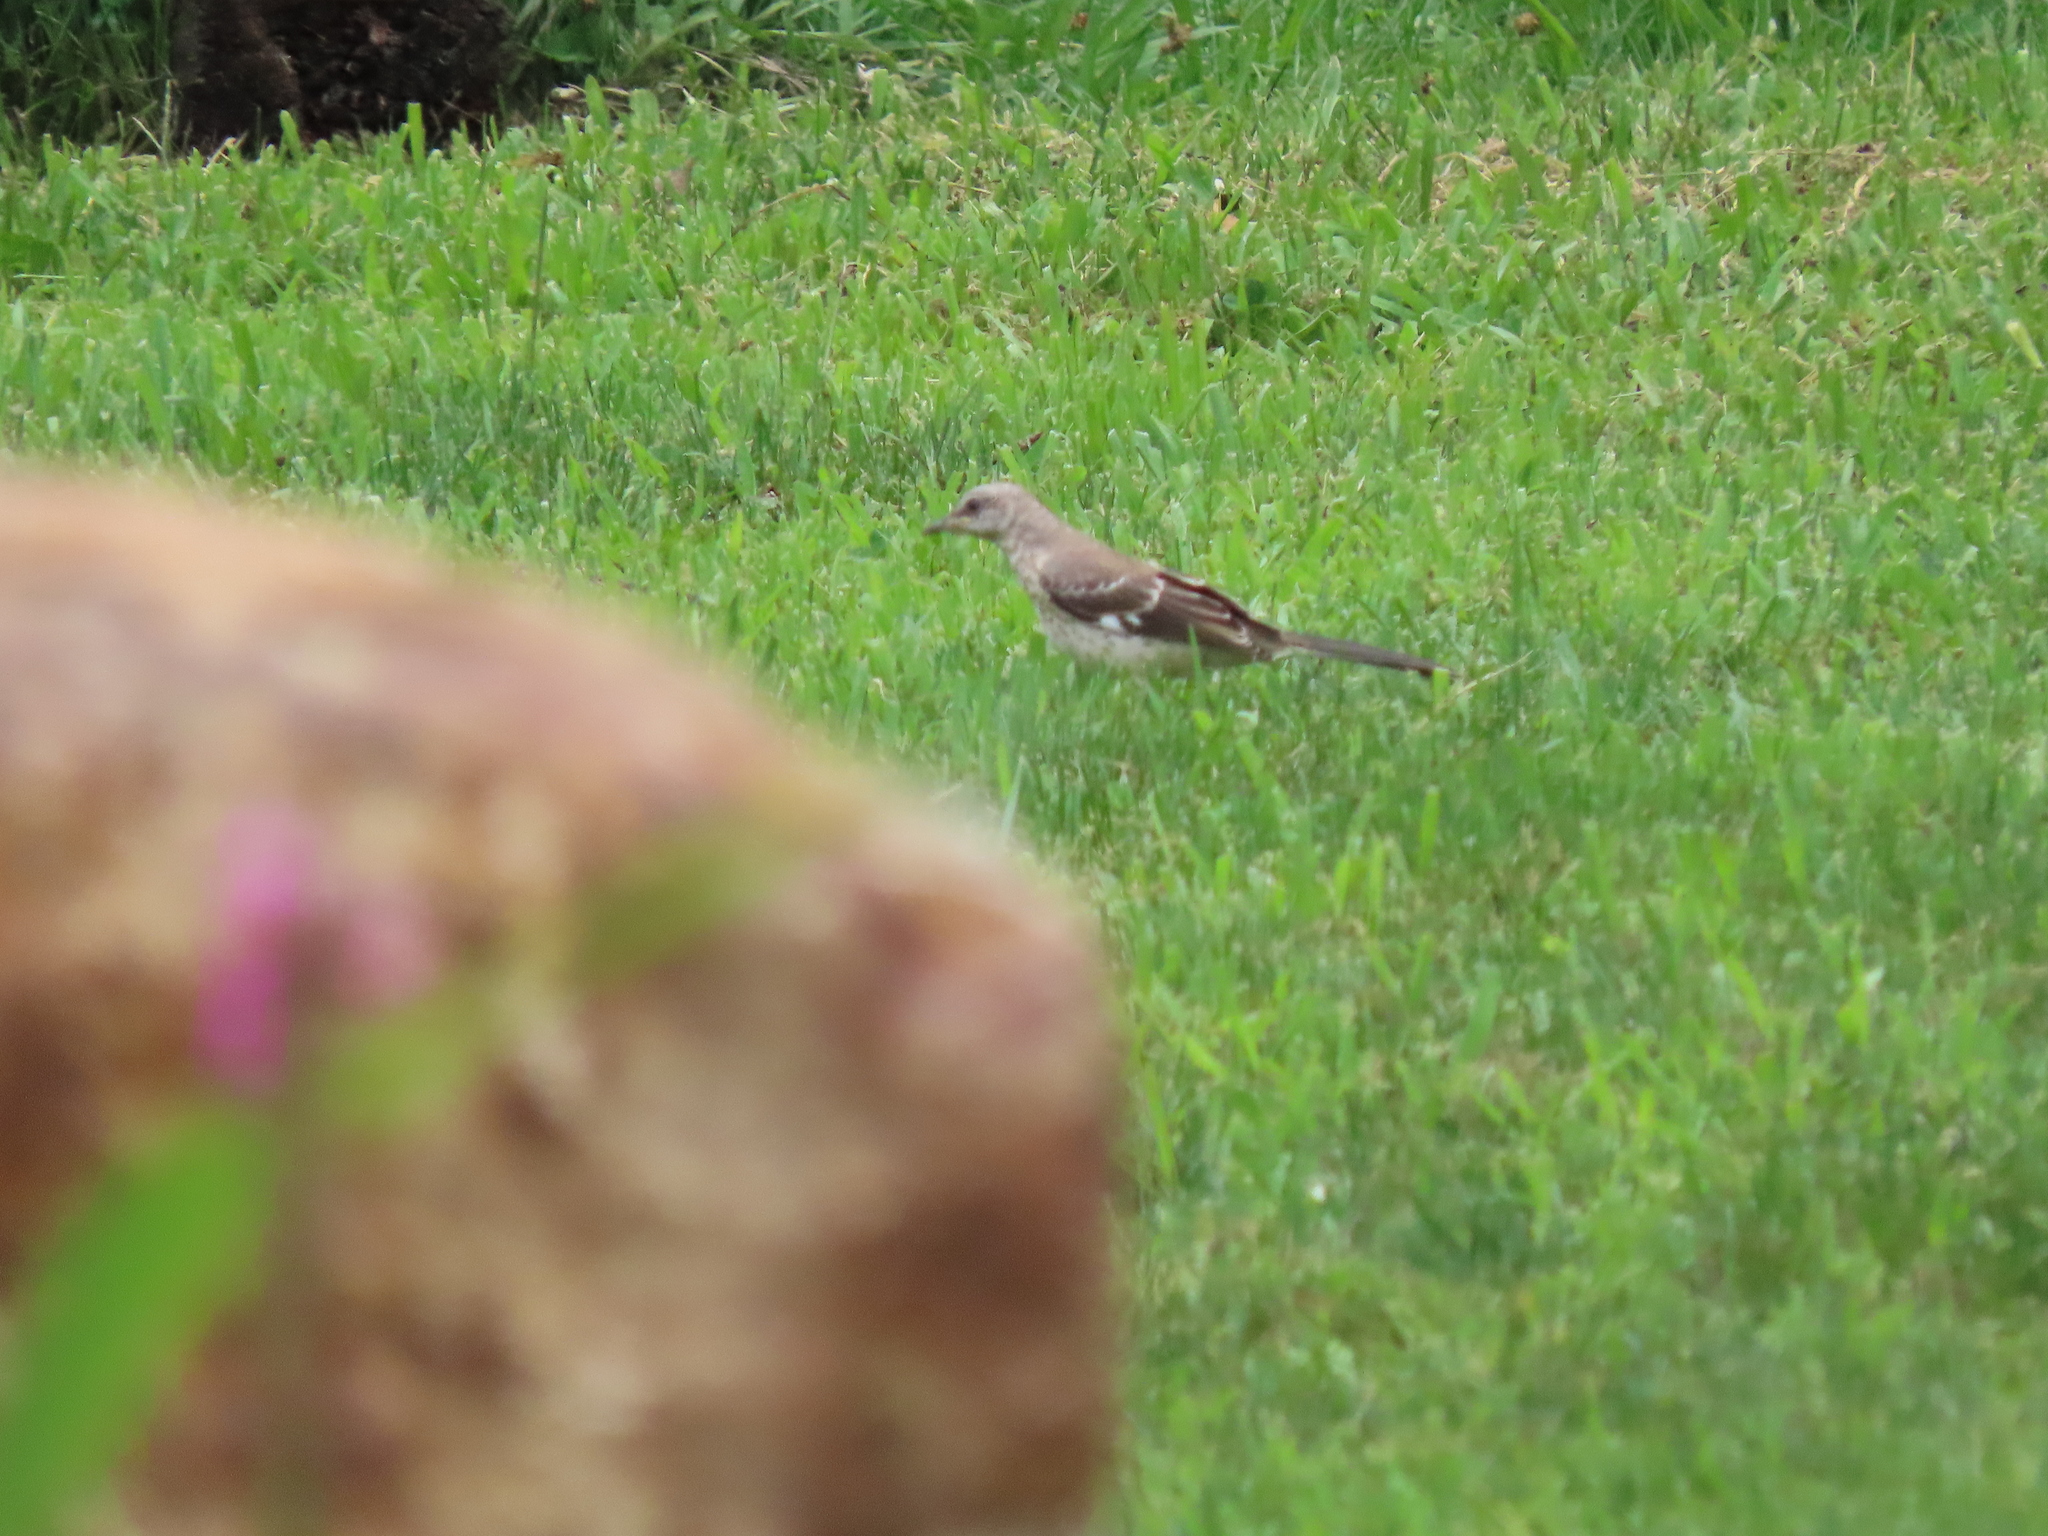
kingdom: Animalia
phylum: Chordata
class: Aves
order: Passeriformes
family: Mimidae
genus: Mimus
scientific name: Mimus polyglottos
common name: Northern mockingbird
